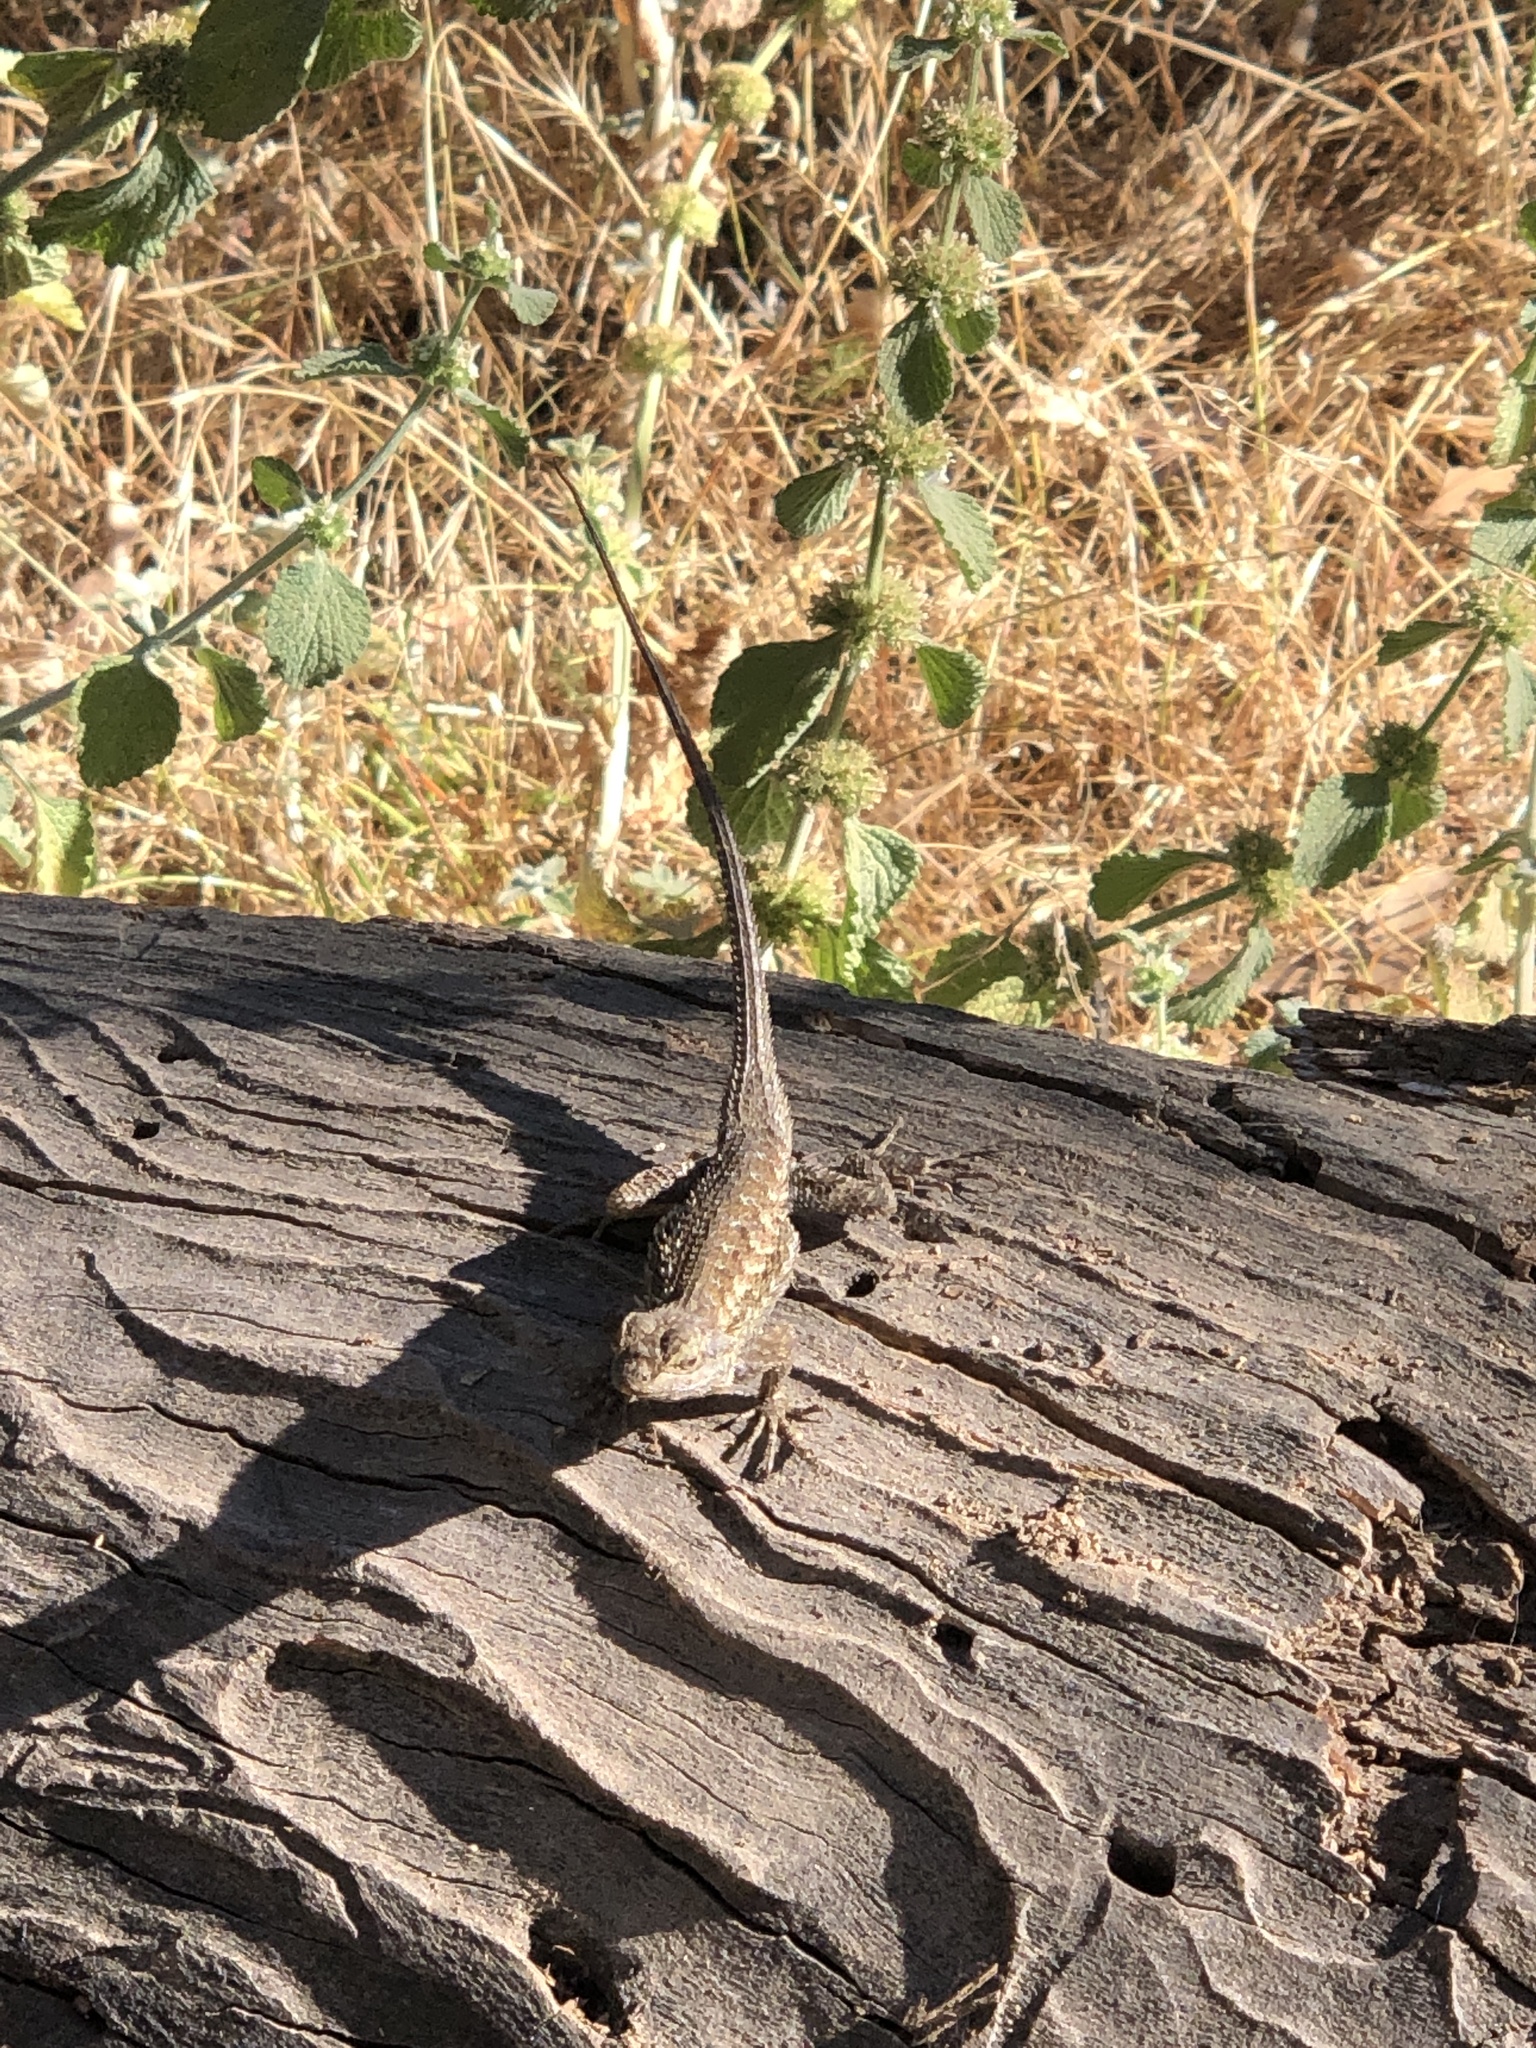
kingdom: Animalia
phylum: Chordata
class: Squamata
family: Phrynosomatidae
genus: Sceloporus
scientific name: Sceloporus occidentalis
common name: Western fence lizard
